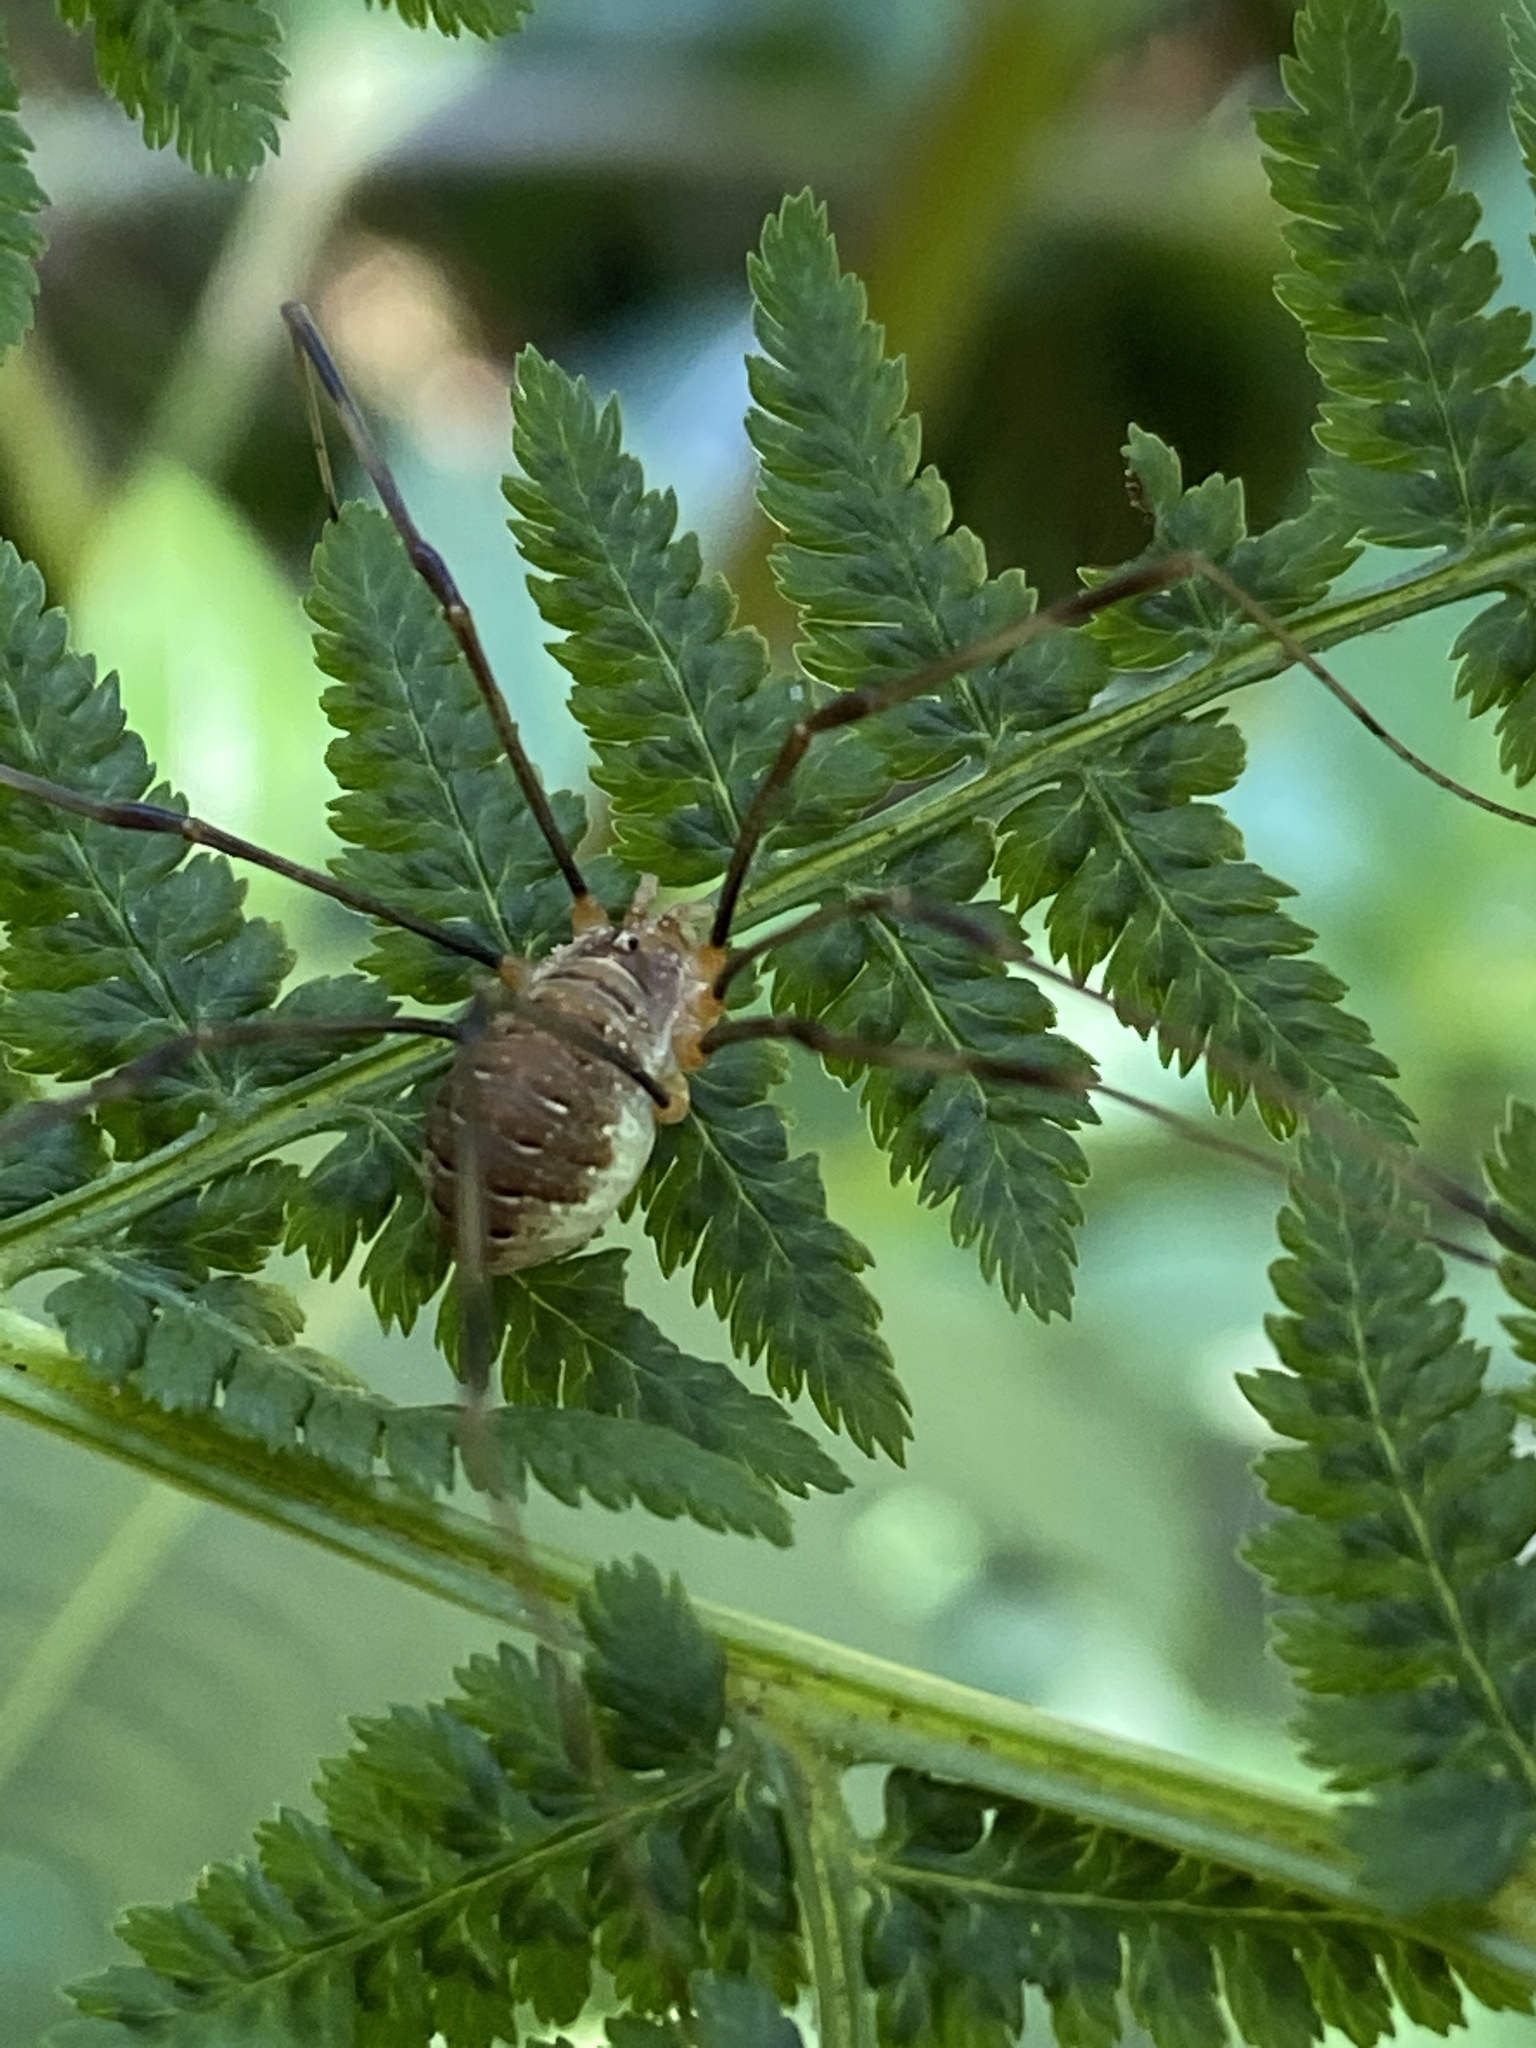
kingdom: Animalia
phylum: Arthropoda
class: Arachnida
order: Opiliones
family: Phalangiidae
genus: Opilio
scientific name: Opilio canestrinii
